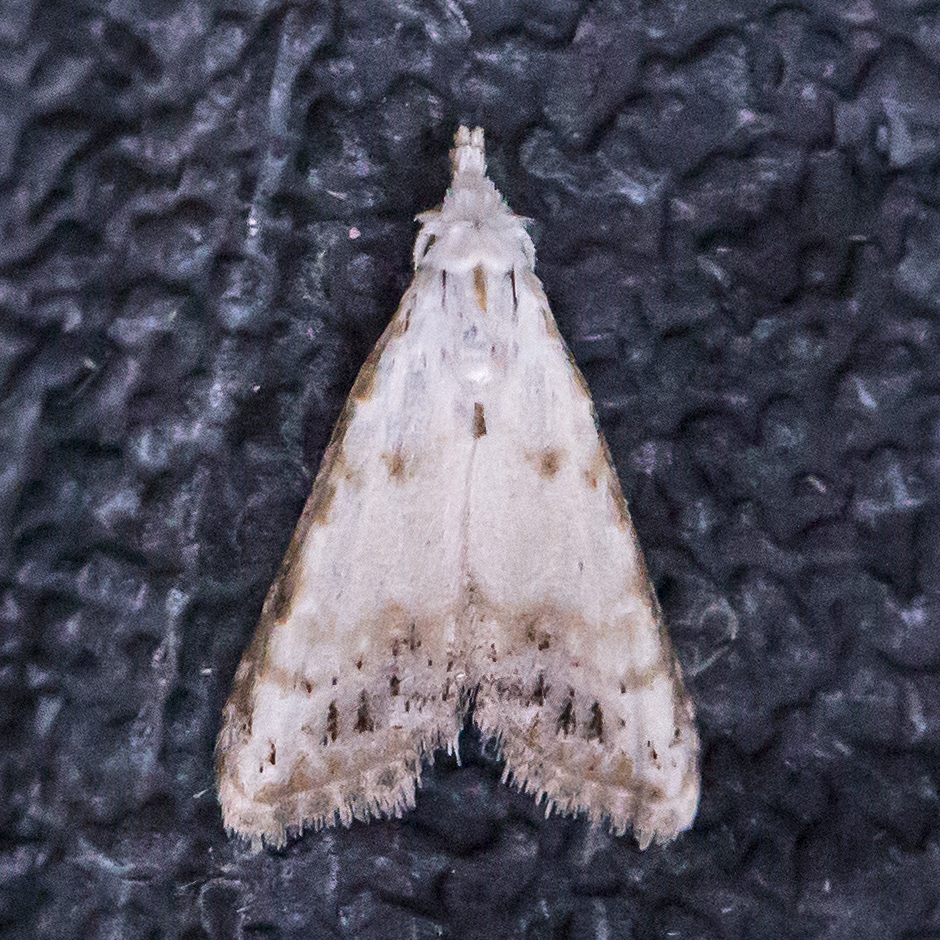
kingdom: Animalia
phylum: Arthropoda
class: Insecta
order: Lepidoptera
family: Nolidae
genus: Nola
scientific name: Nola cereella
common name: Sorghum webworm moth
